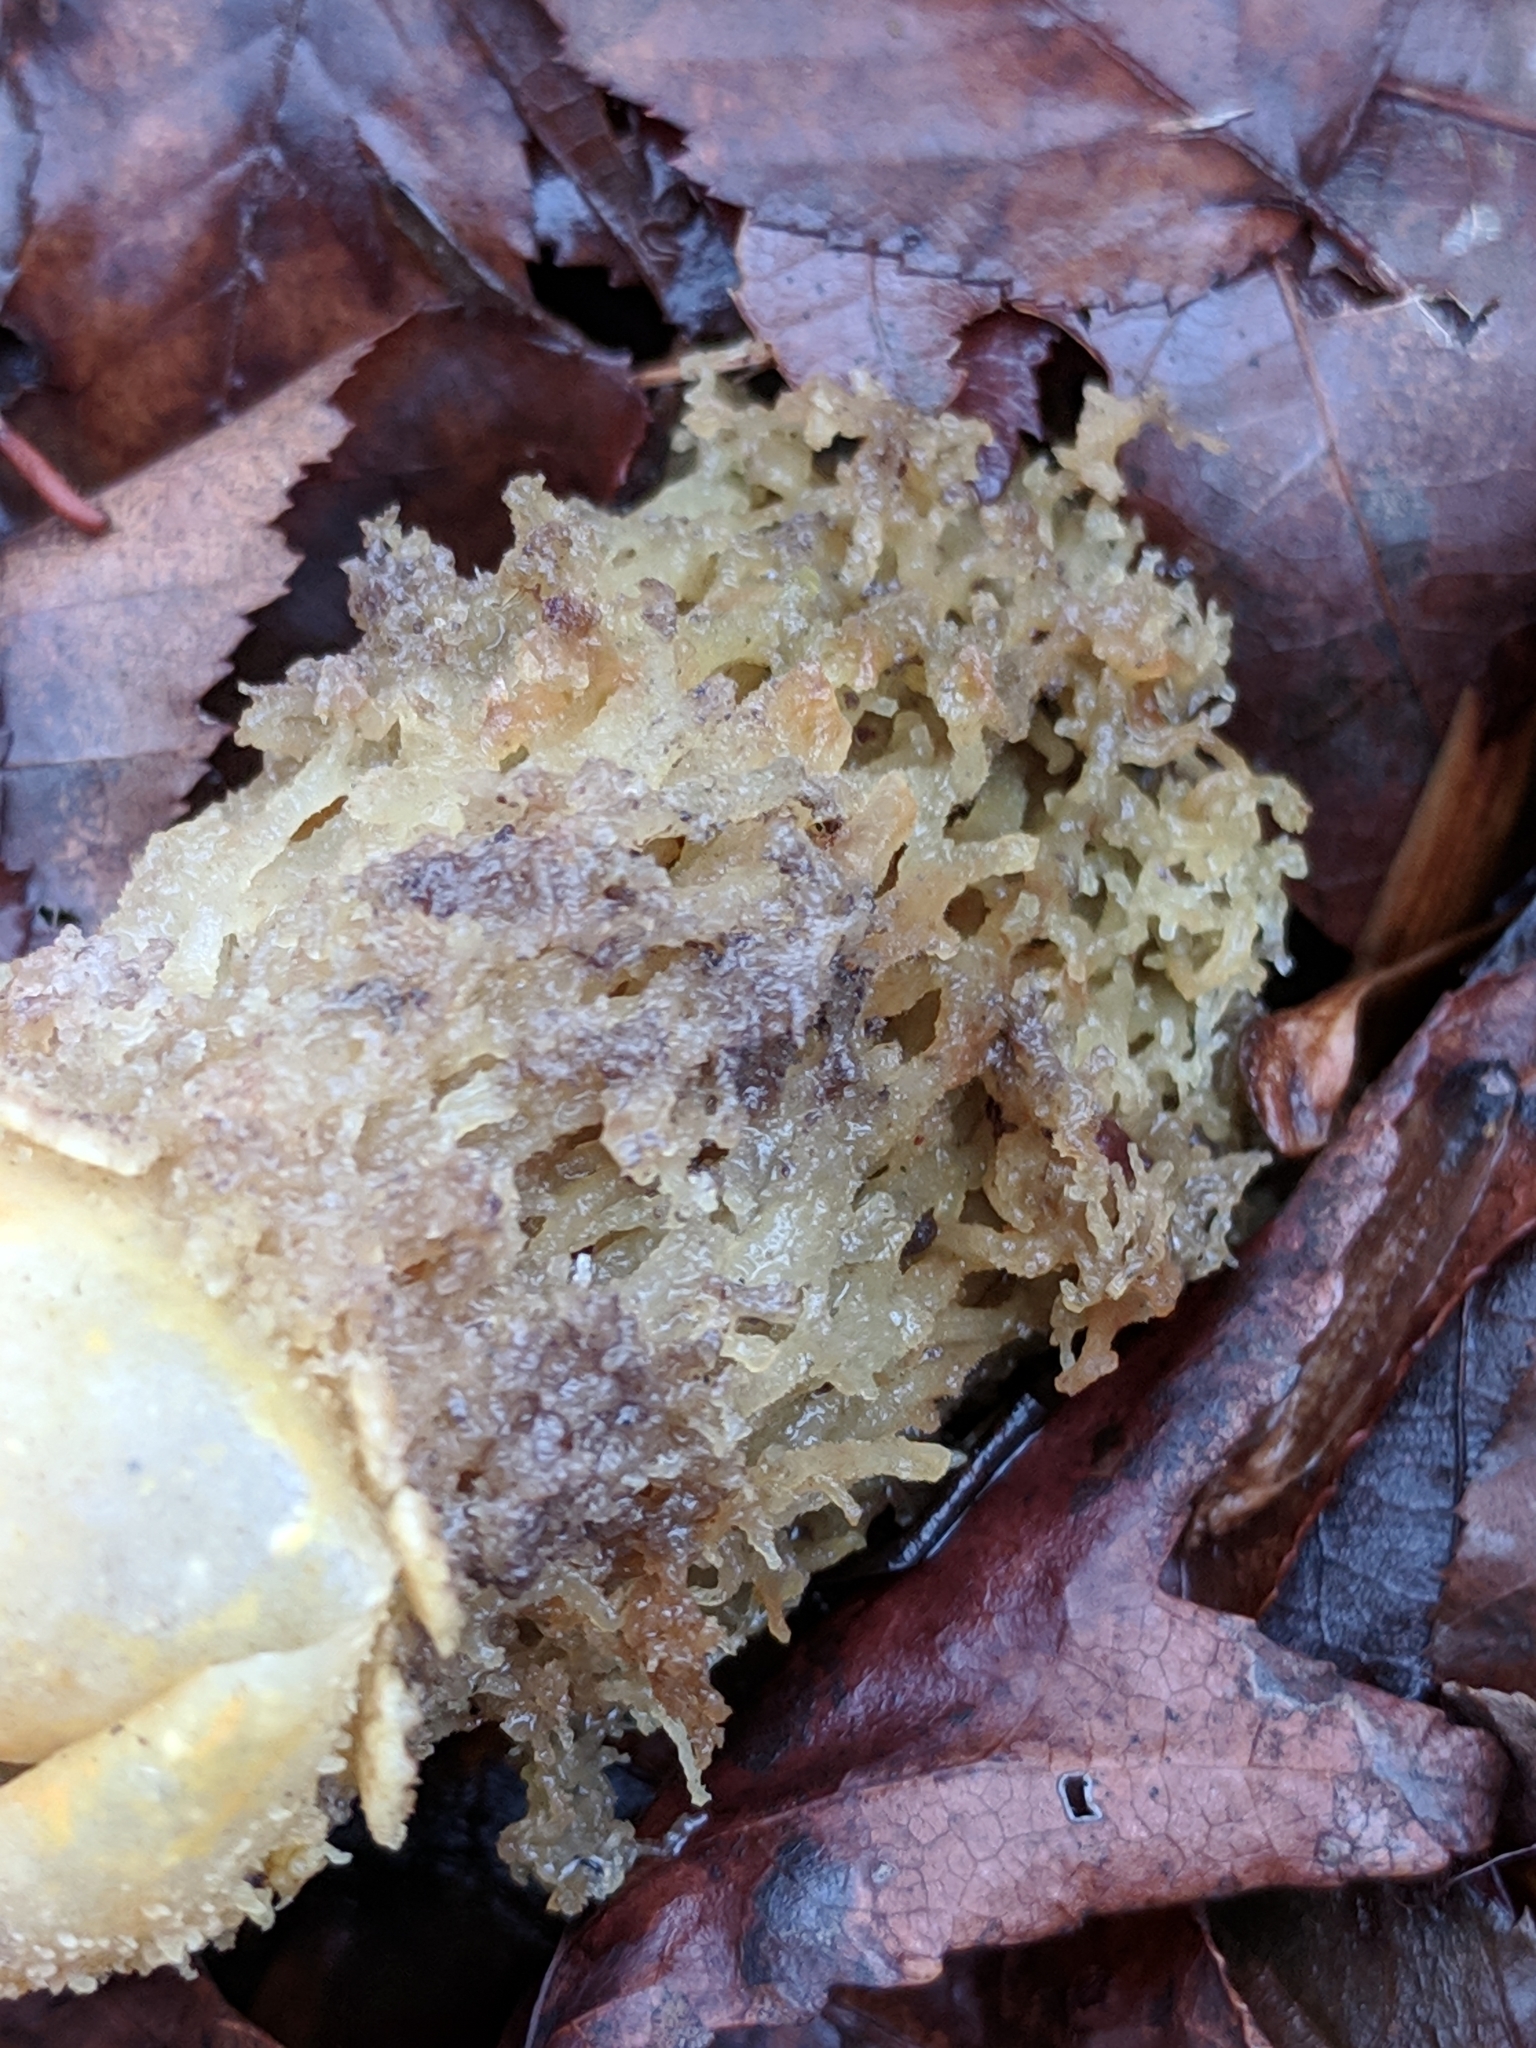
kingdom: Fungi
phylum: Basidiomycota
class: Agaricomycetes
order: Boletales
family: Calostomataceae
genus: Calostoma
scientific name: Calostoma lutescens
